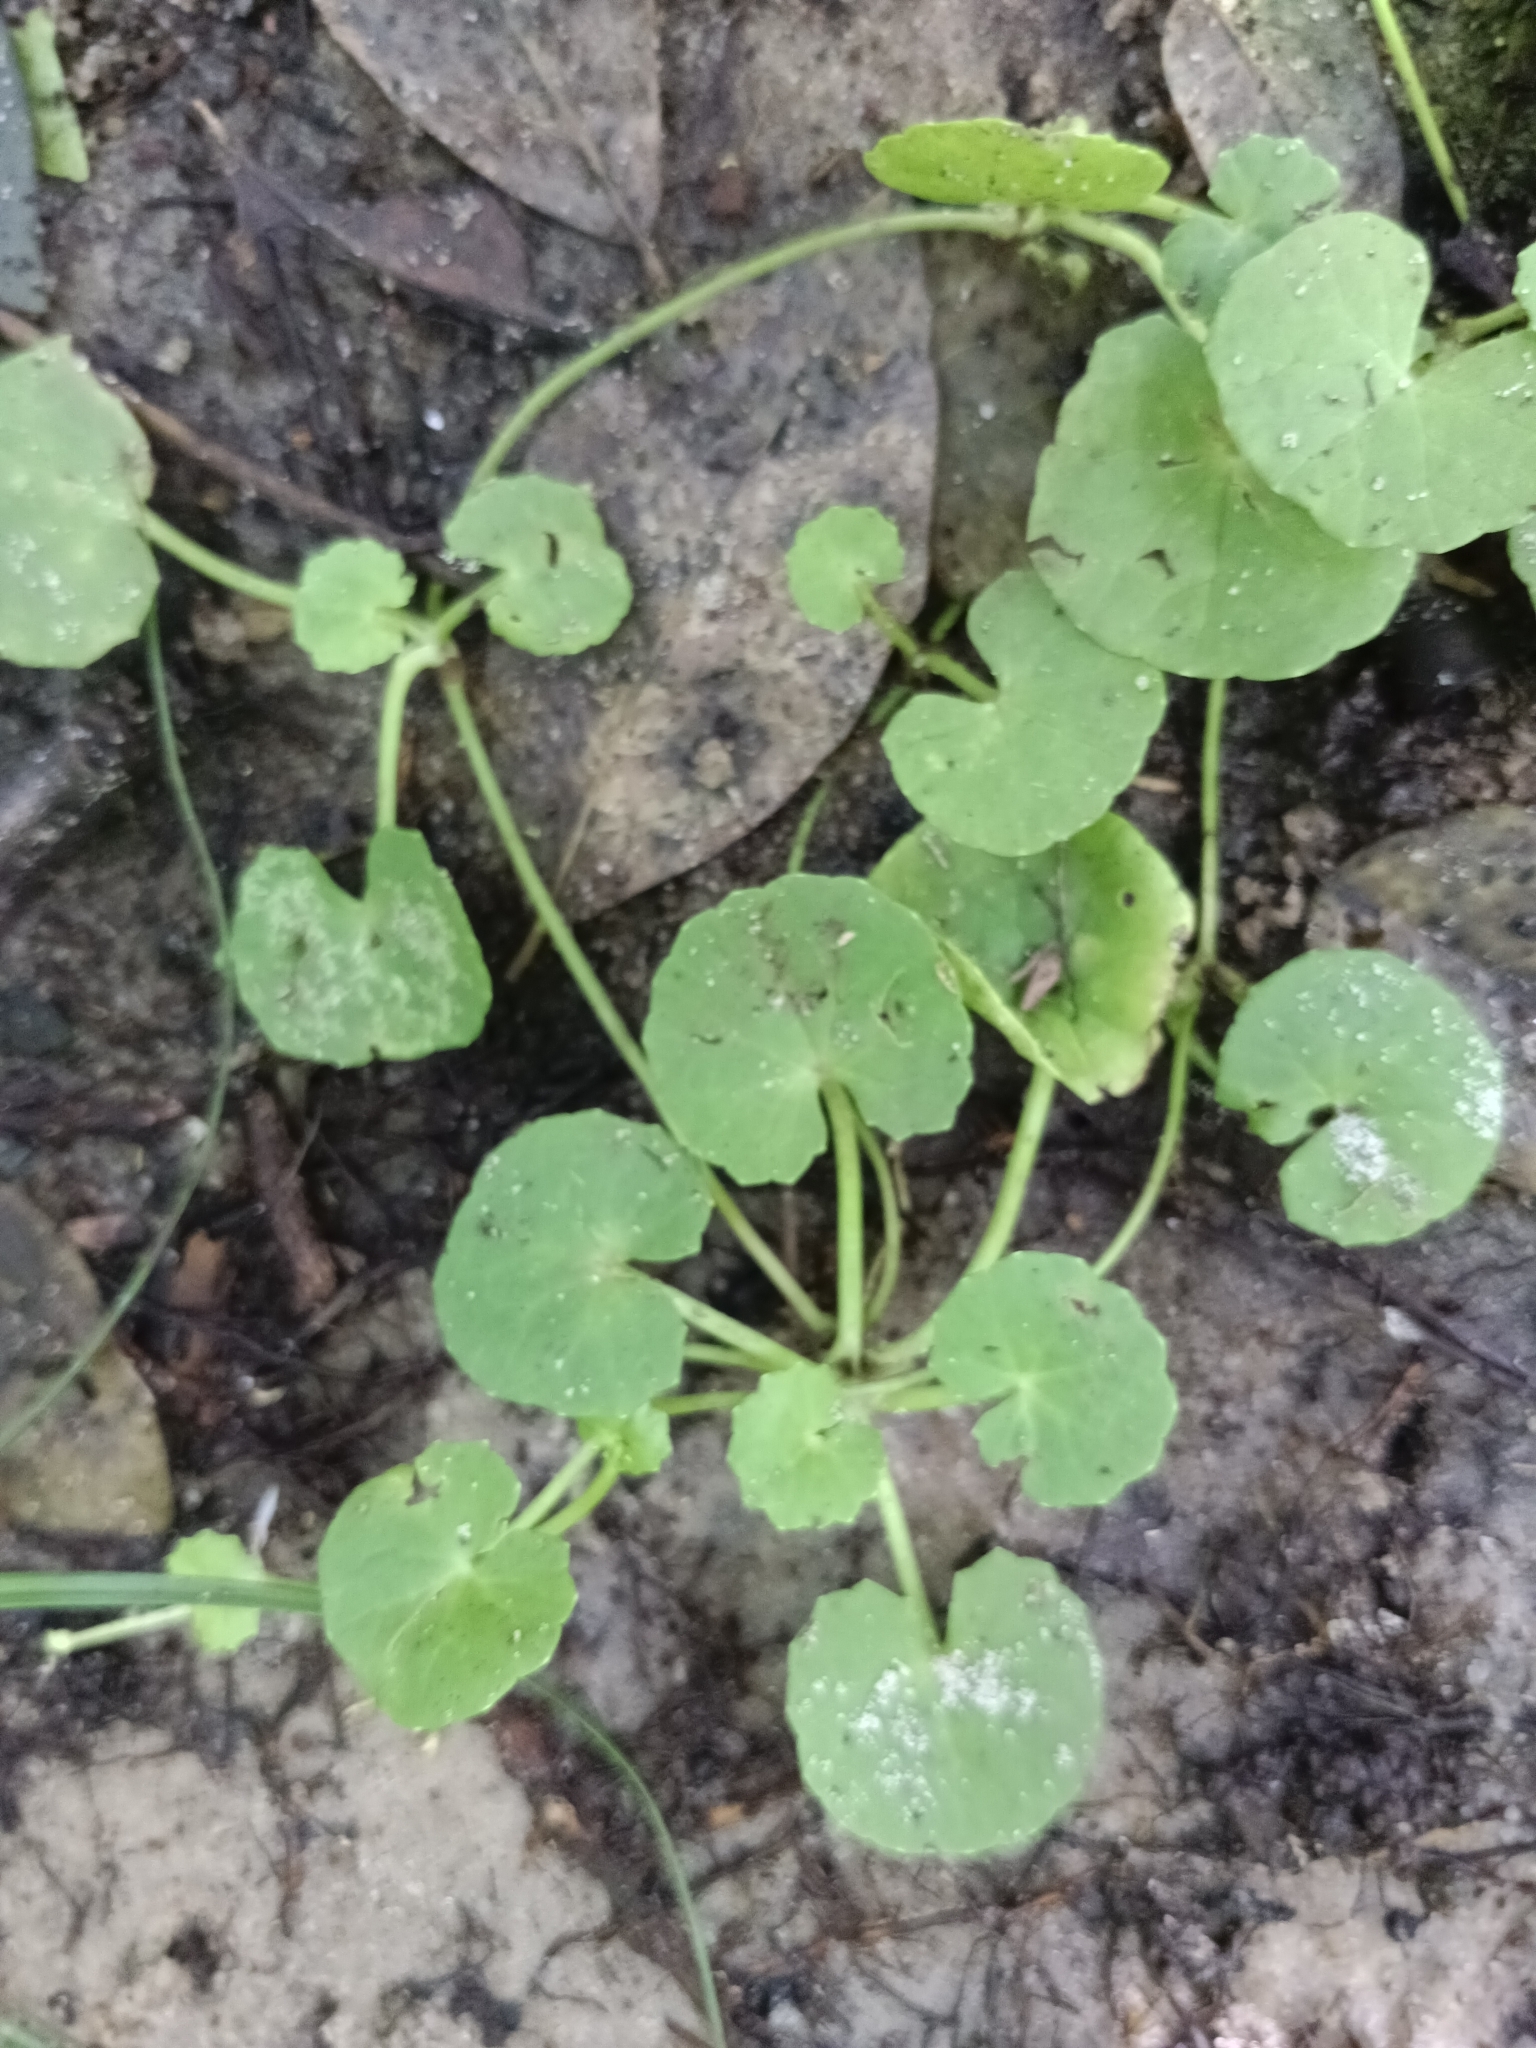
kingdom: Plantae
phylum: Tracheophyta
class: Magnoliopsida
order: Apiales
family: Apiaceae
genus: Centella
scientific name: Centella asiatica
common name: Spadeleaf
